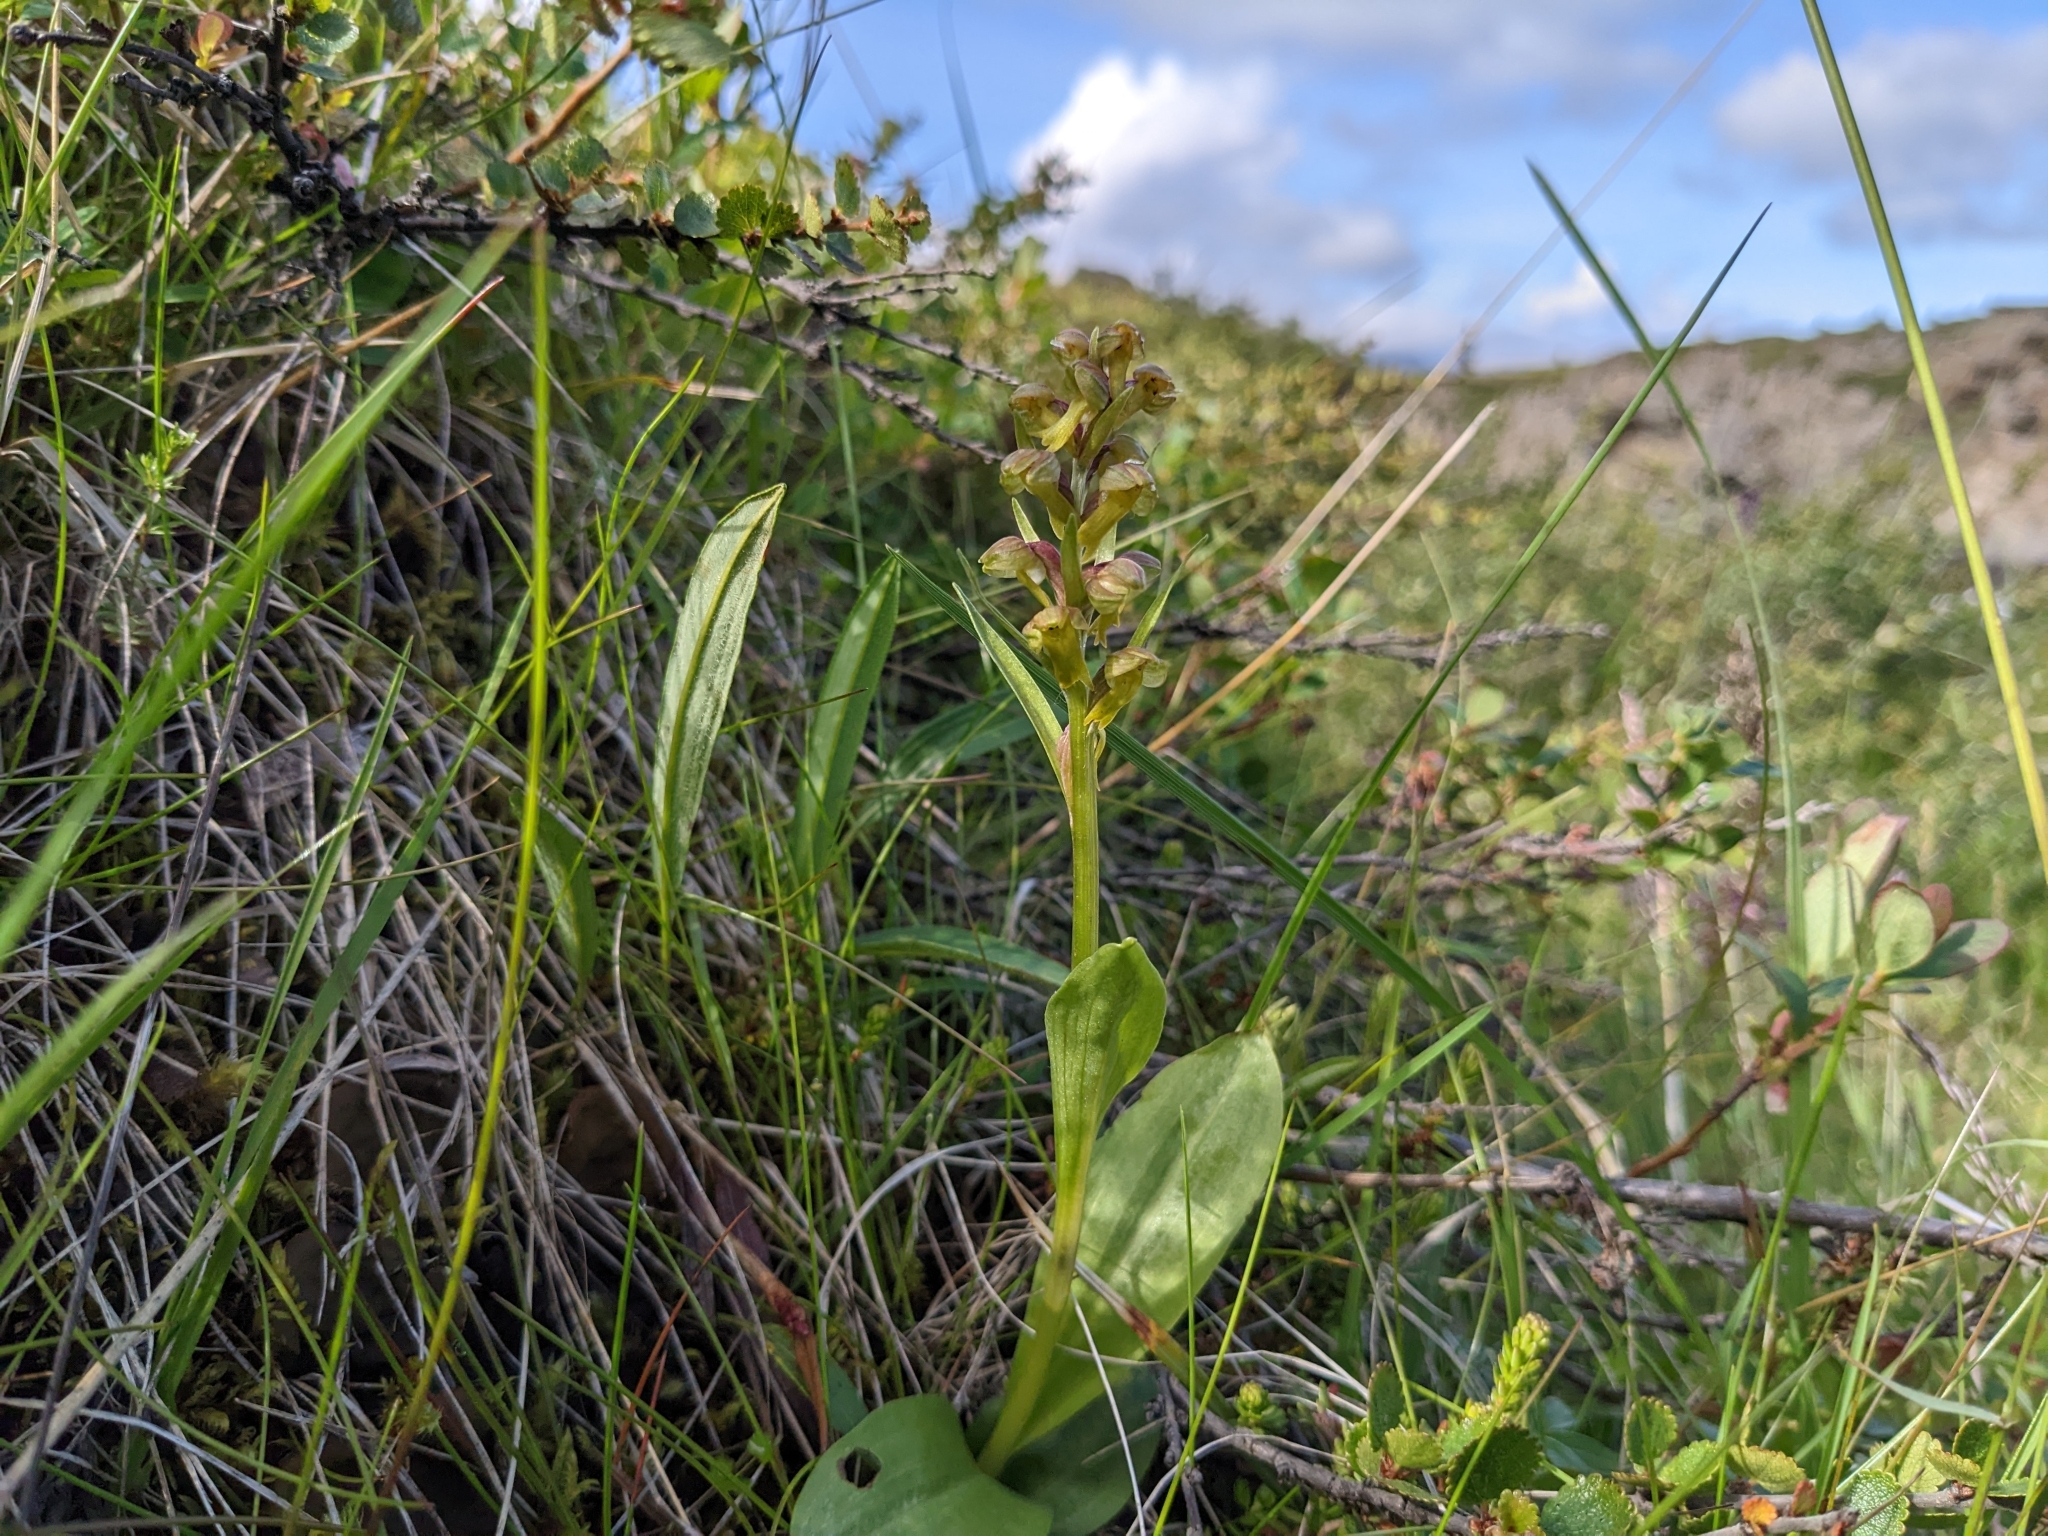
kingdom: Plantae
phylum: Tracheophyta
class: Liliopsida
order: Asparagales
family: Orchidaceae
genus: Dactylorhiza
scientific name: Dactylorhiza viridis
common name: Longbract frog orchid
